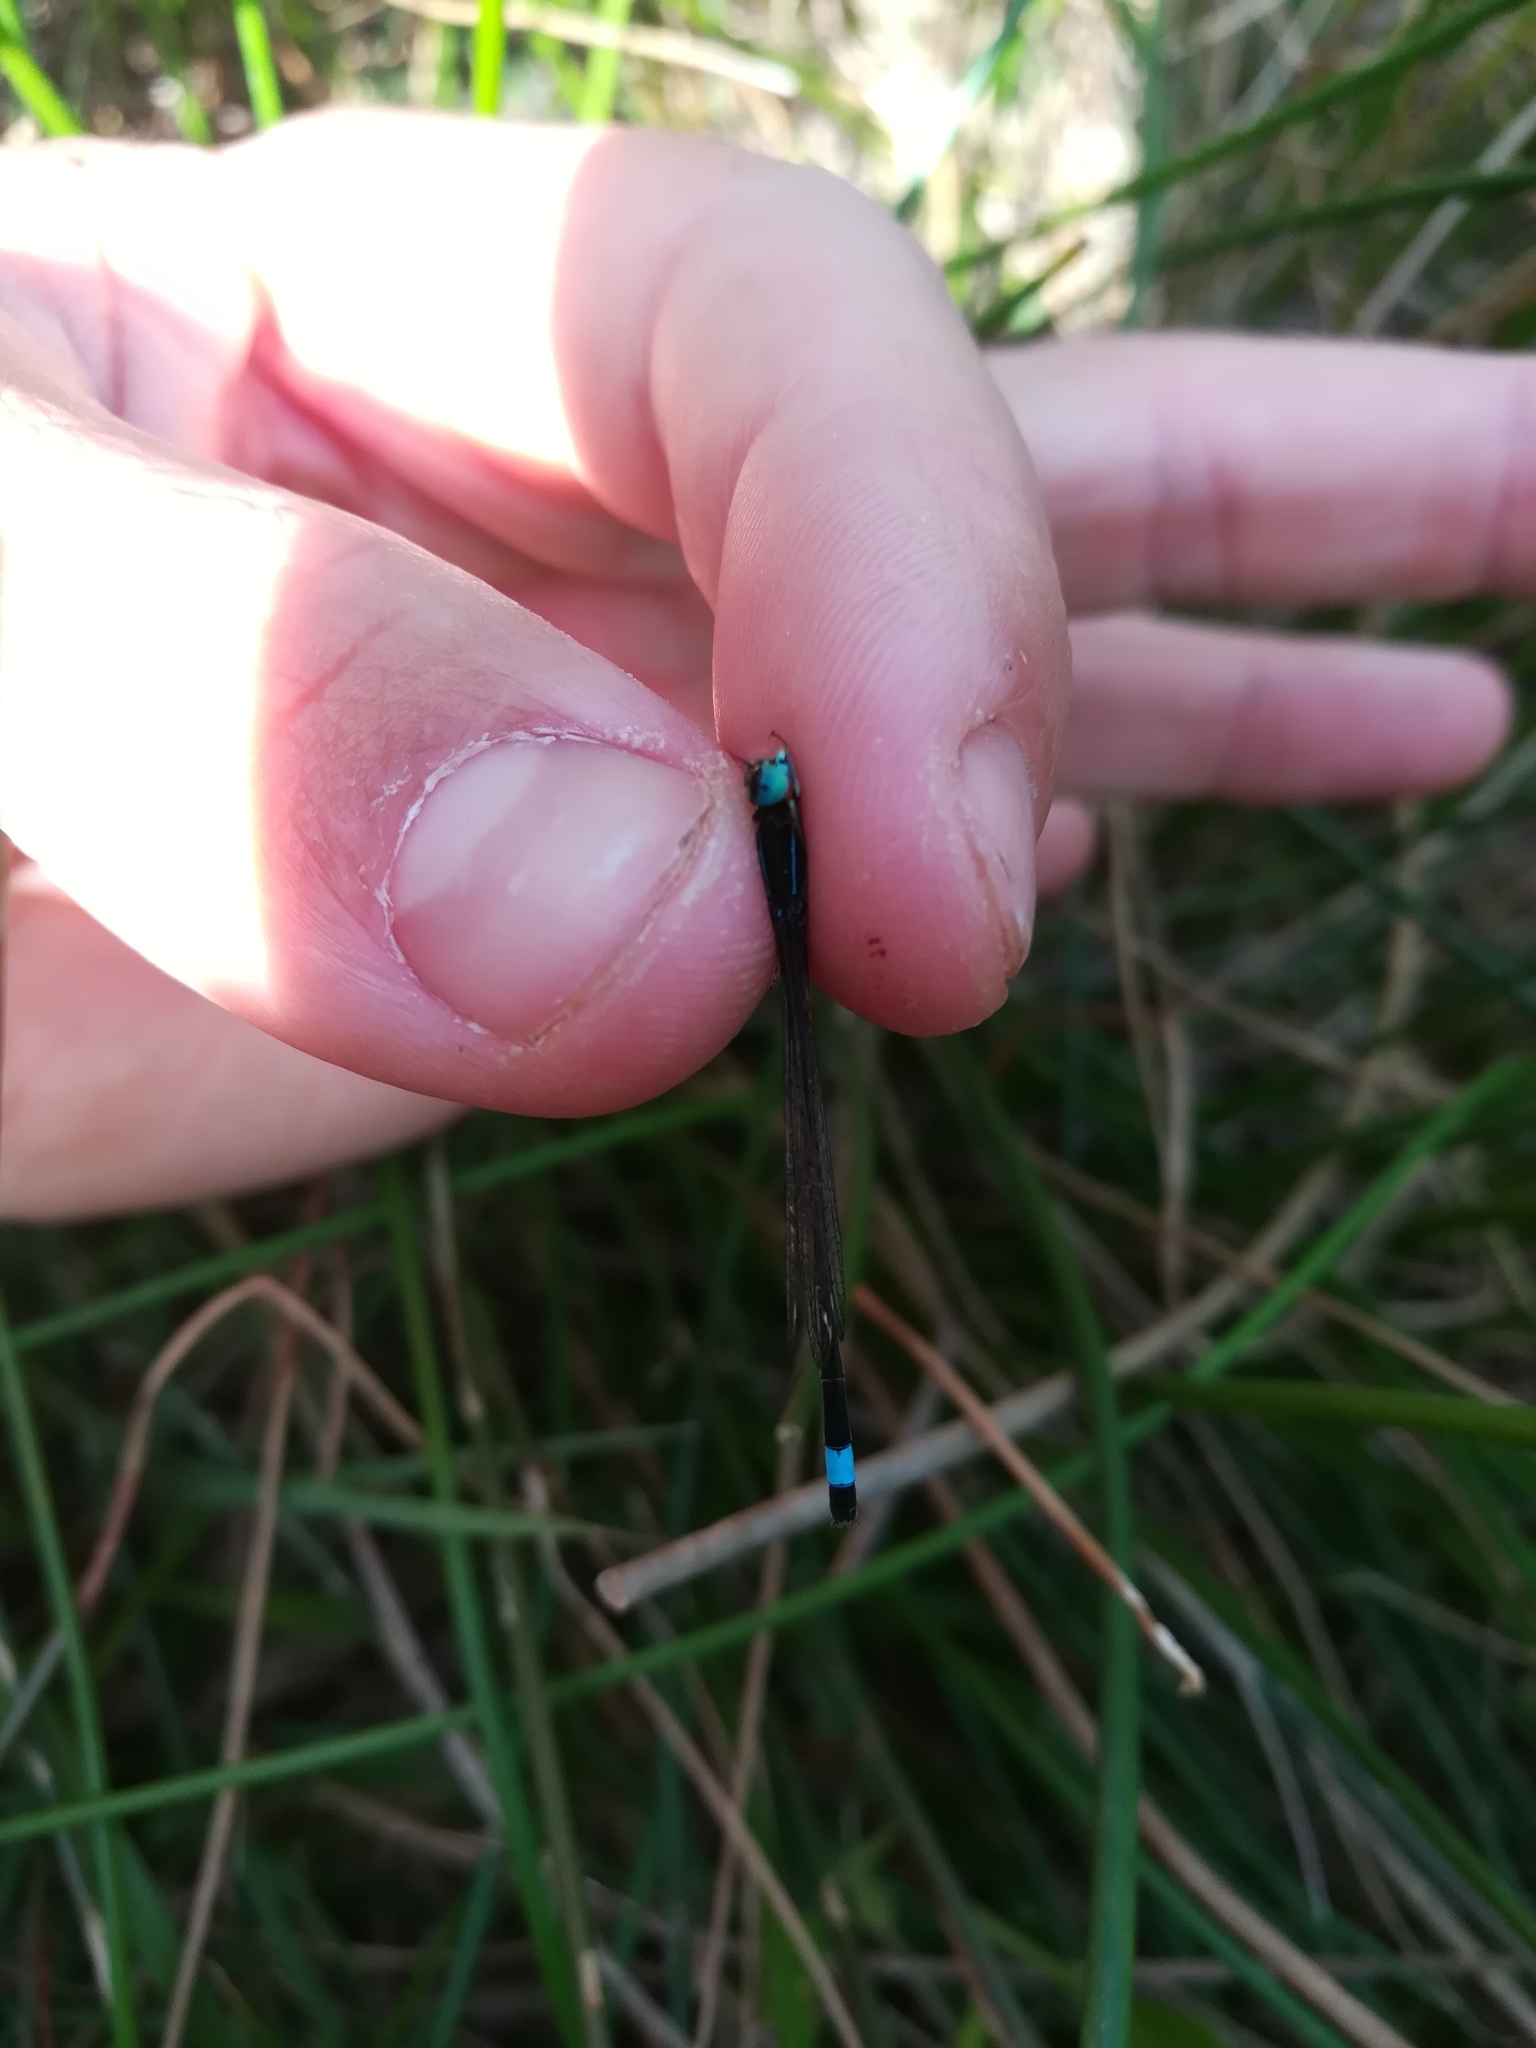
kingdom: Animalia
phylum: Arthropoda
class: Insecta
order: Odonata
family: Coenagrionidae
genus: Ischnura
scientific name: Ischnura elegans
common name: Blue-tailed damselfly
